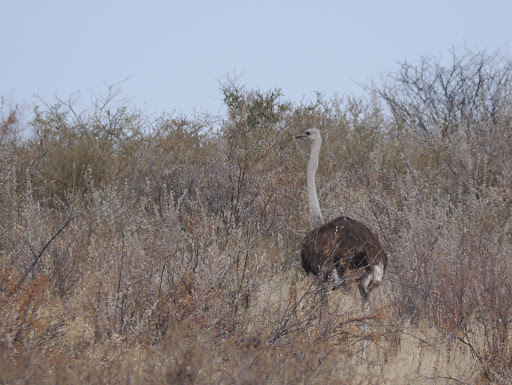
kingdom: Animalia
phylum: Chordata
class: Aves
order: Struthioniformes
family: Struthionidae
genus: Struthio
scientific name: Struthio camelus
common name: Common ostrich
